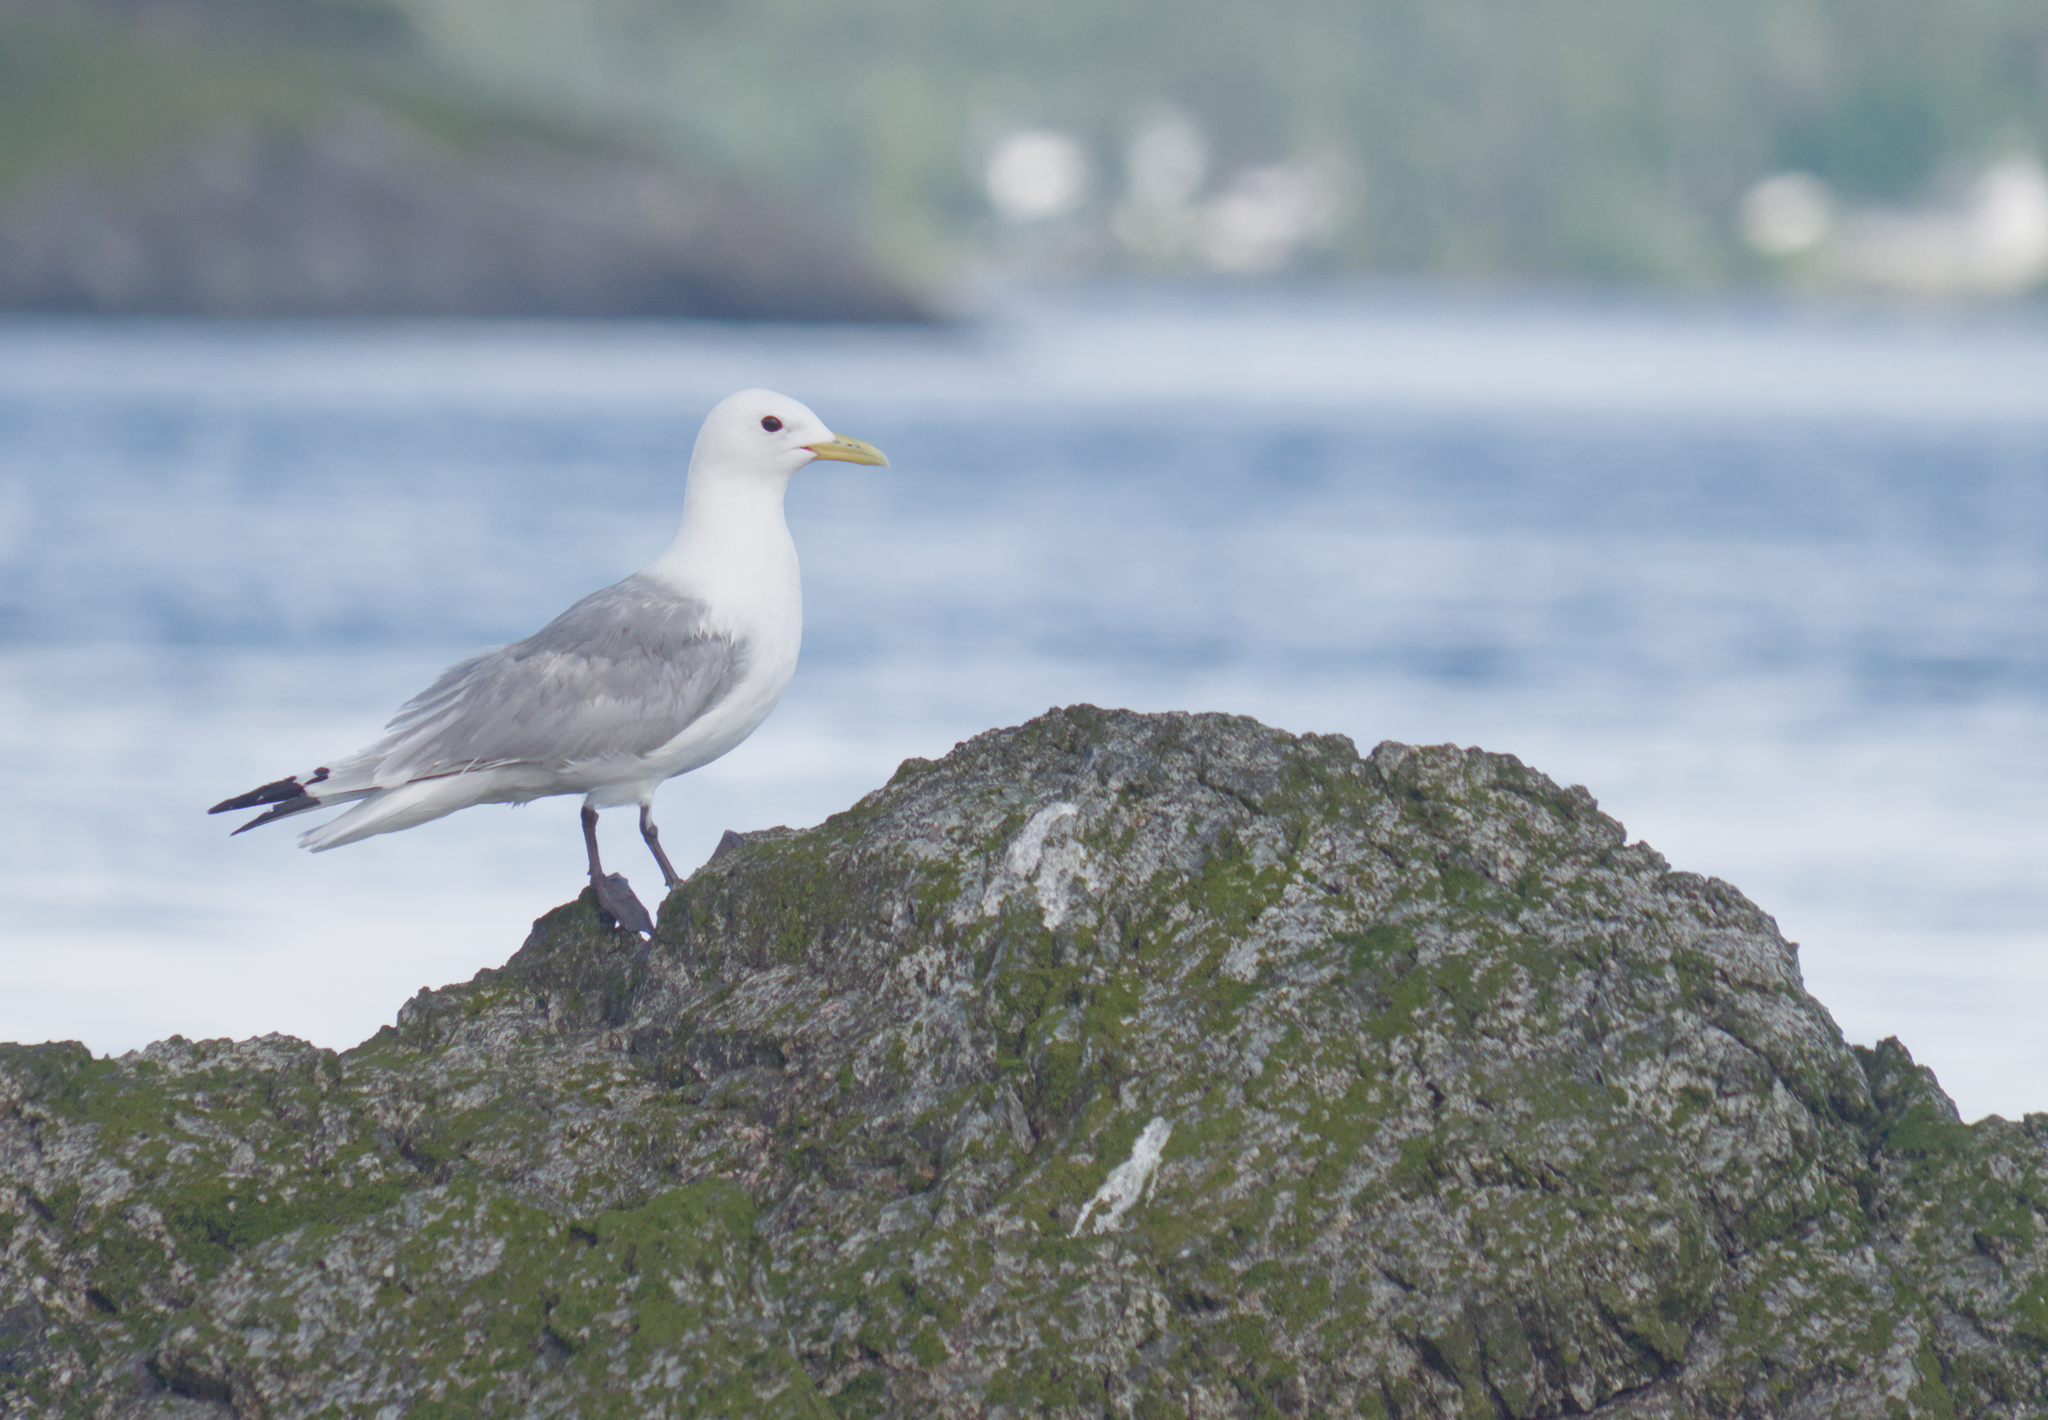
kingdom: Animalia
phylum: Chordata
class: Aves
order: Charadriiformes
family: Laridae
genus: Rissa
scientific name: Rissa tridactyla
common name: Black-legged kittiwake
